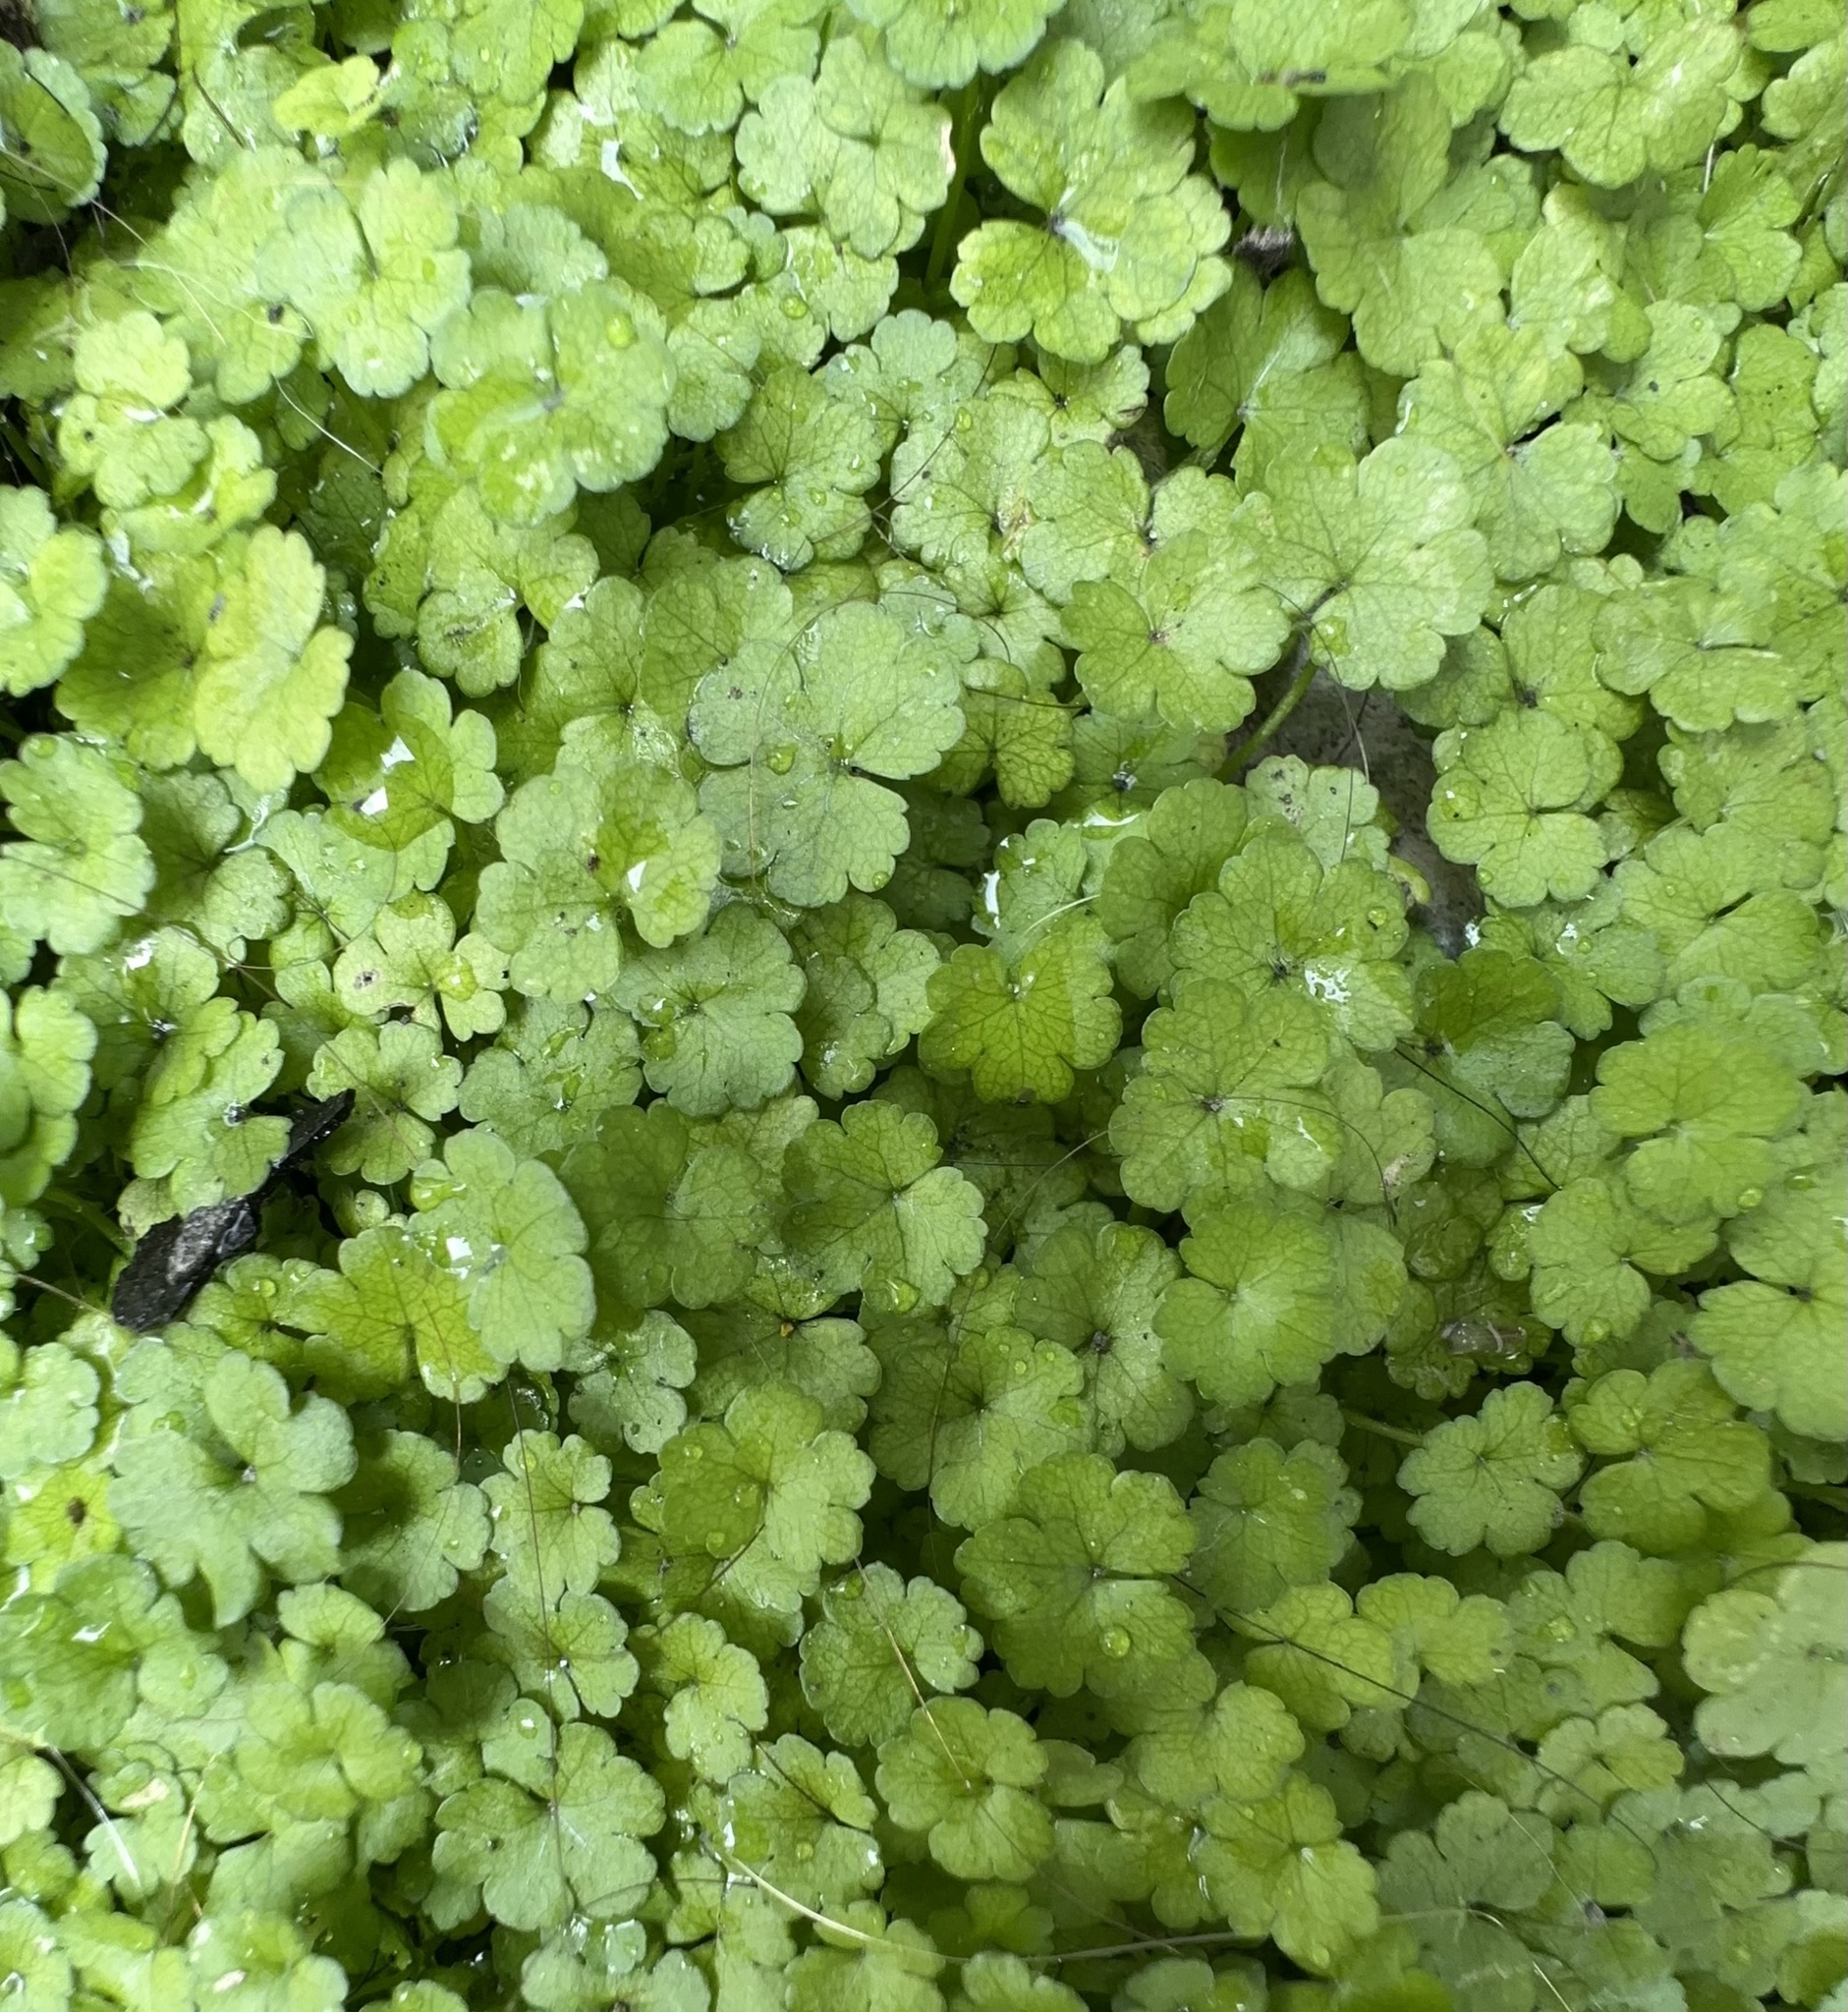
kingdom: Plantae
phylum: Tracheophyta
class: Magnoliopsida
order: Apiales
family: Araliaceae
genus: Hydrocotyle
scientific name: Hydrocotyle heteromeria
